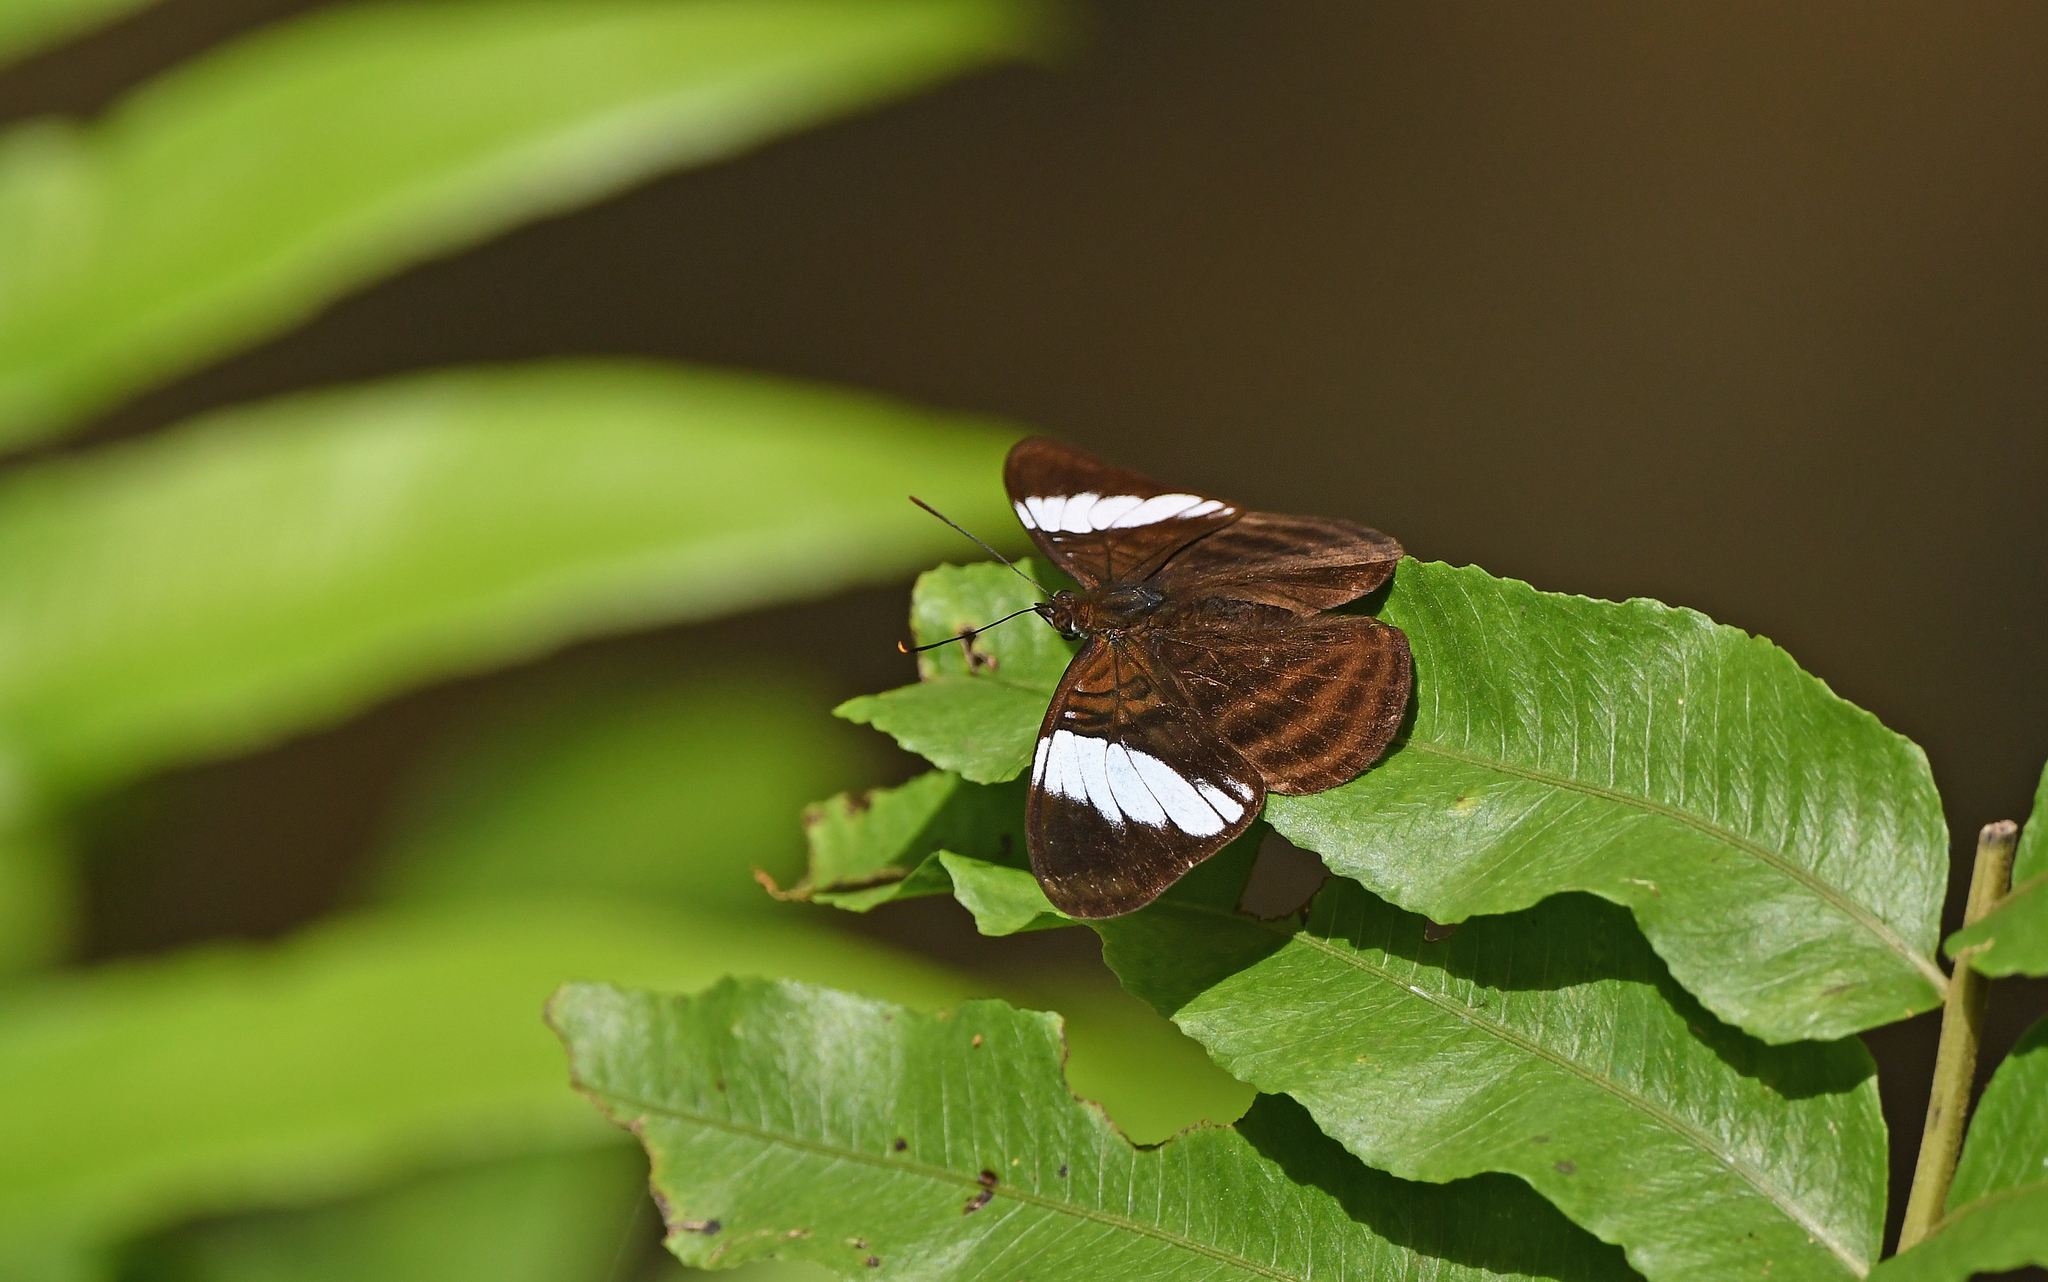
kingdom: Animalia
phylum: Arthropoda
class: Insecta
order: Lepidoptera
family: Nymphalidae
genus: Limenitis
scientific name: Limenitis epione
